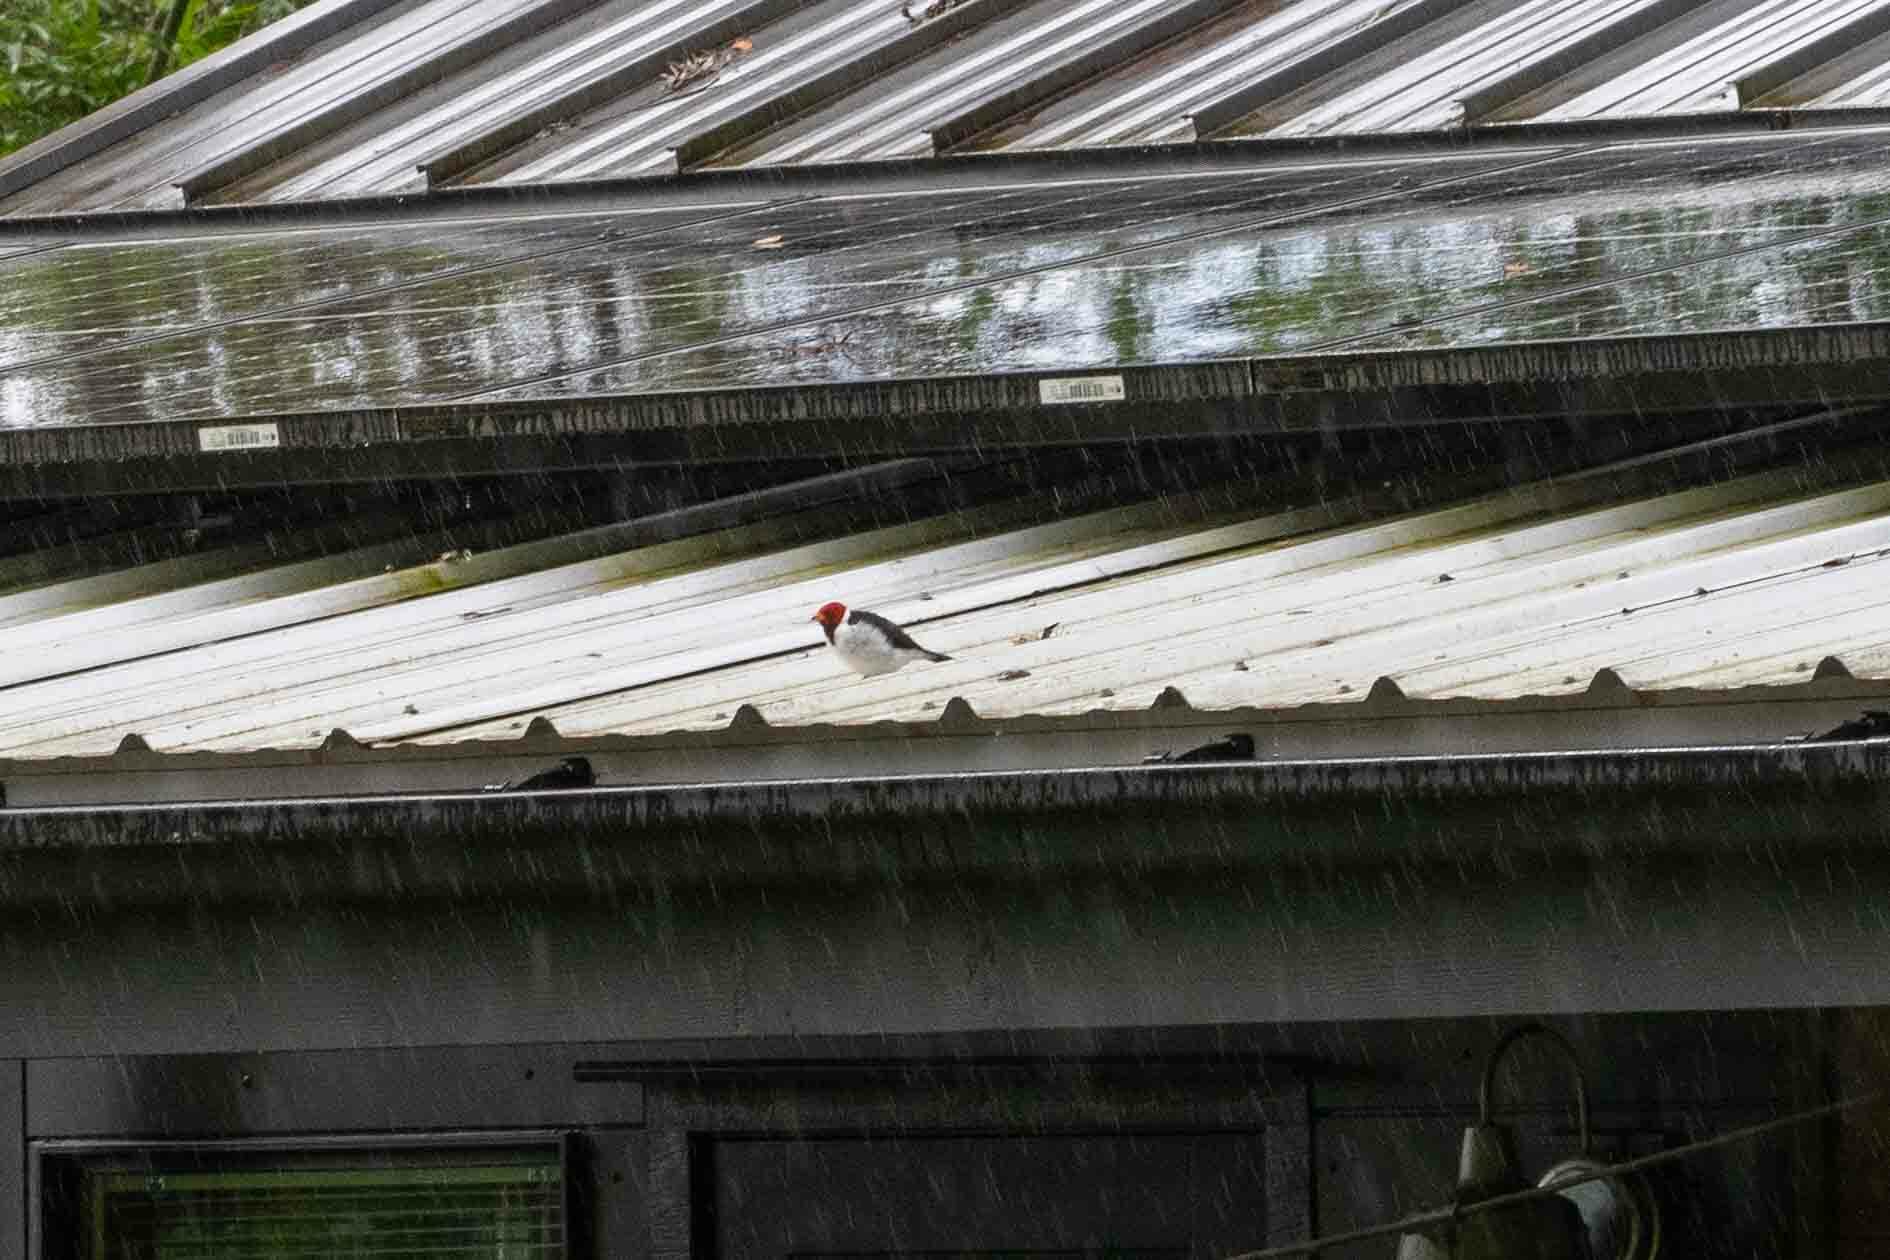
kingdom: Animalia
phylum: Chordata
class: Aves
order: Passeriformes
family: Thraupidae
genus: Paroaria
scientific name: Paroaria capitata
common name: Yellow-billed cardinal
